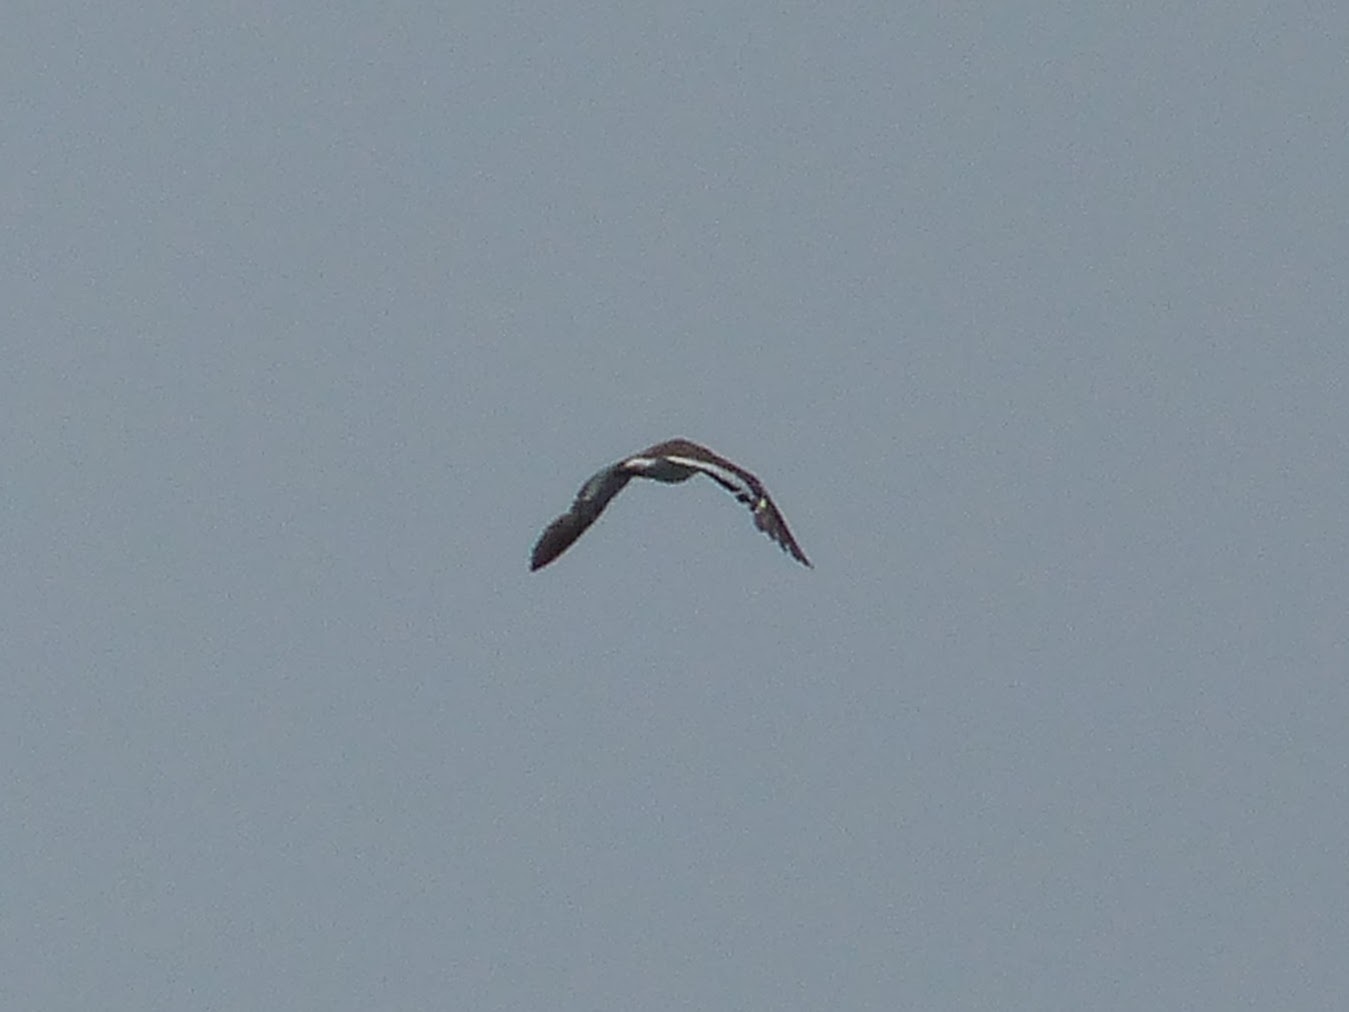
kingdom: Animalia
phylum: Chordata
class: Aves
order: Charadriiformes
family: Haematopodidae
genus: Haematopus
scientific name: Haematopus palliatus
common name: American oystercatcher
